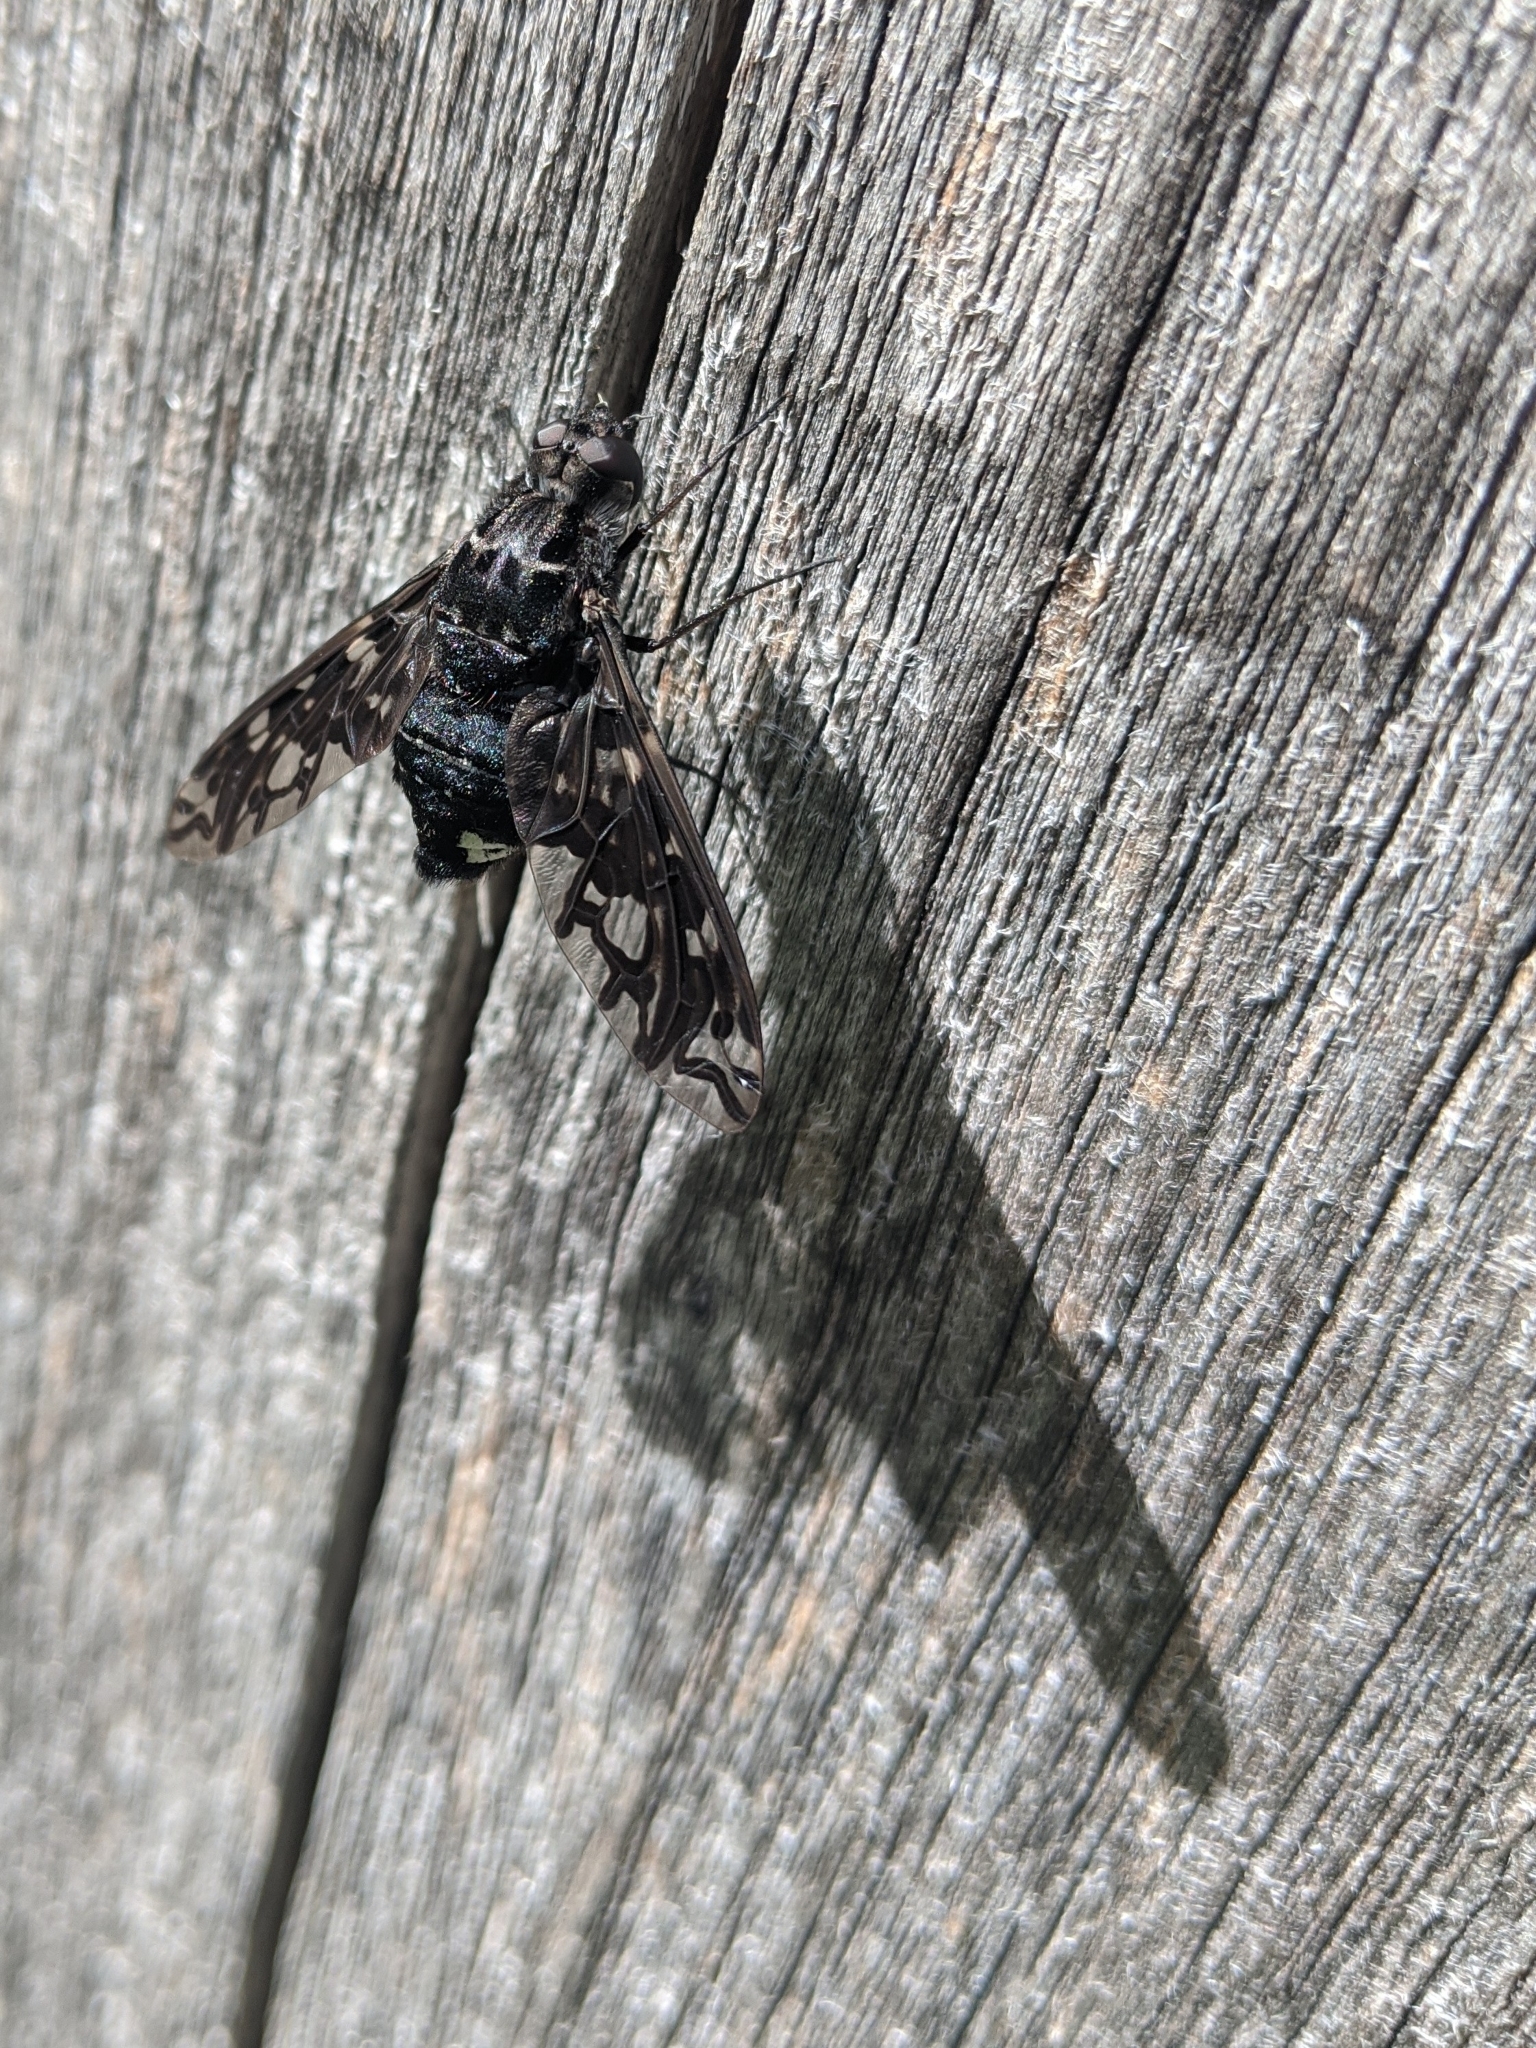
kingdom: Animalia
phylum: Arthropoda
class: Insecta
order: Diptera
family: Bombyliidae
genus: Xenox
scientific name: Xenox tigrinus
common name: Tiger bee fly
